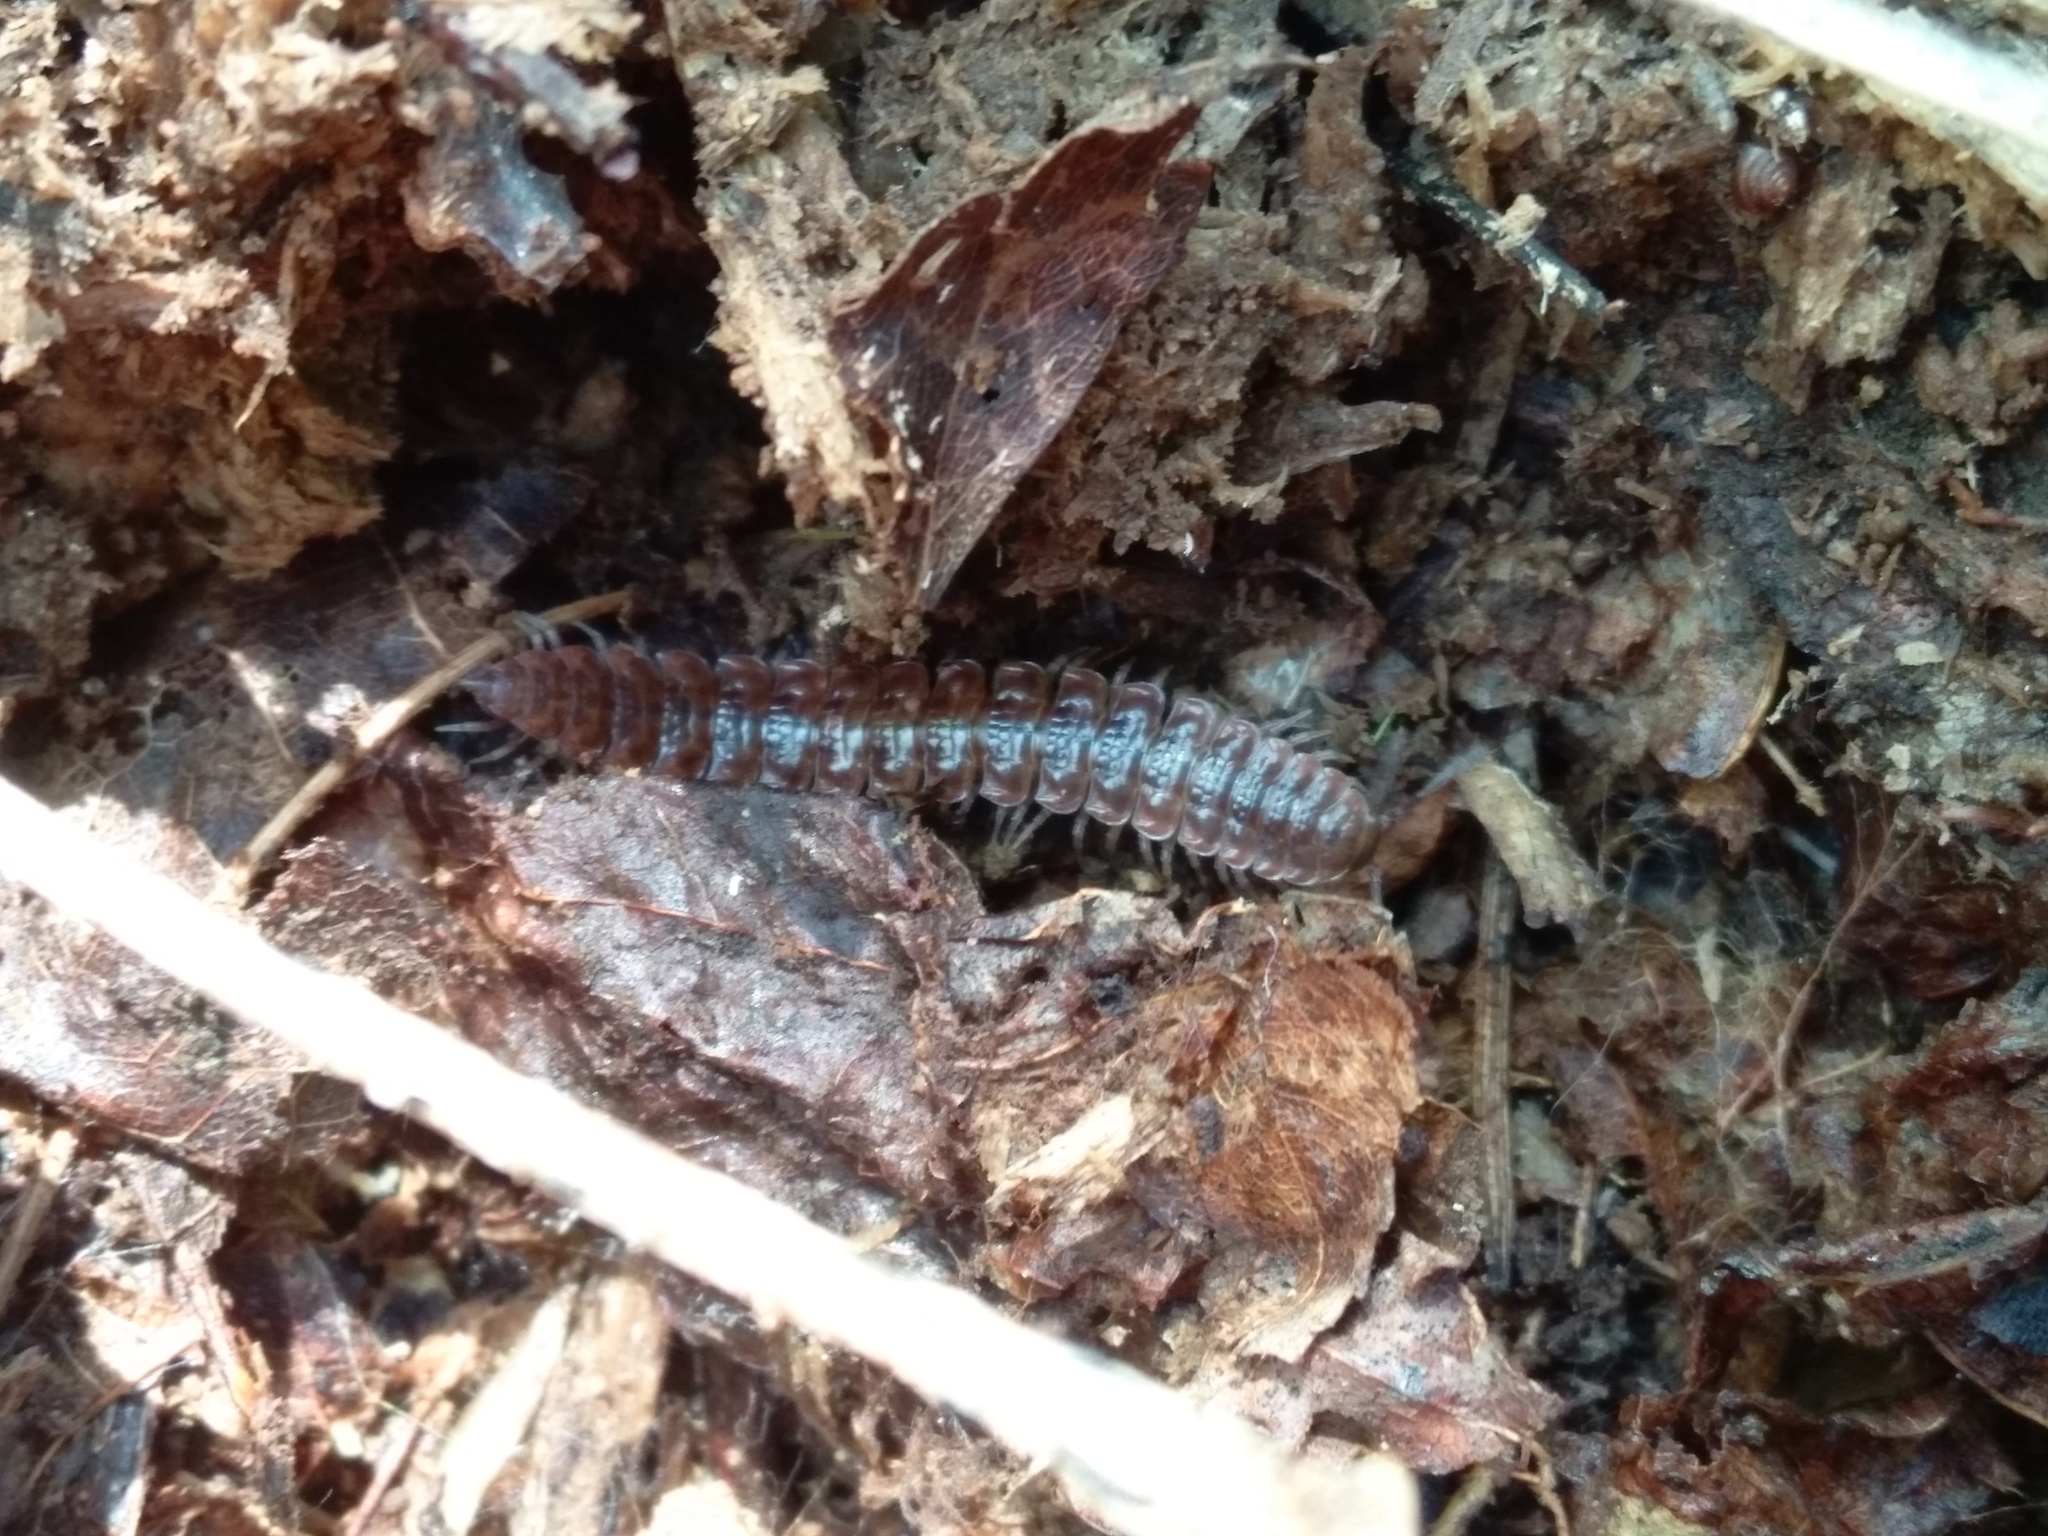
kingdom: Animalia
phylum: Arthropoda
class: Diplopoda
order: Polydesmida
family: Polydesmidae
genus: Pseudopolydesmus
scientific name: Pseudopolydesmus serratus
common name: Common pink flat-back millipede
